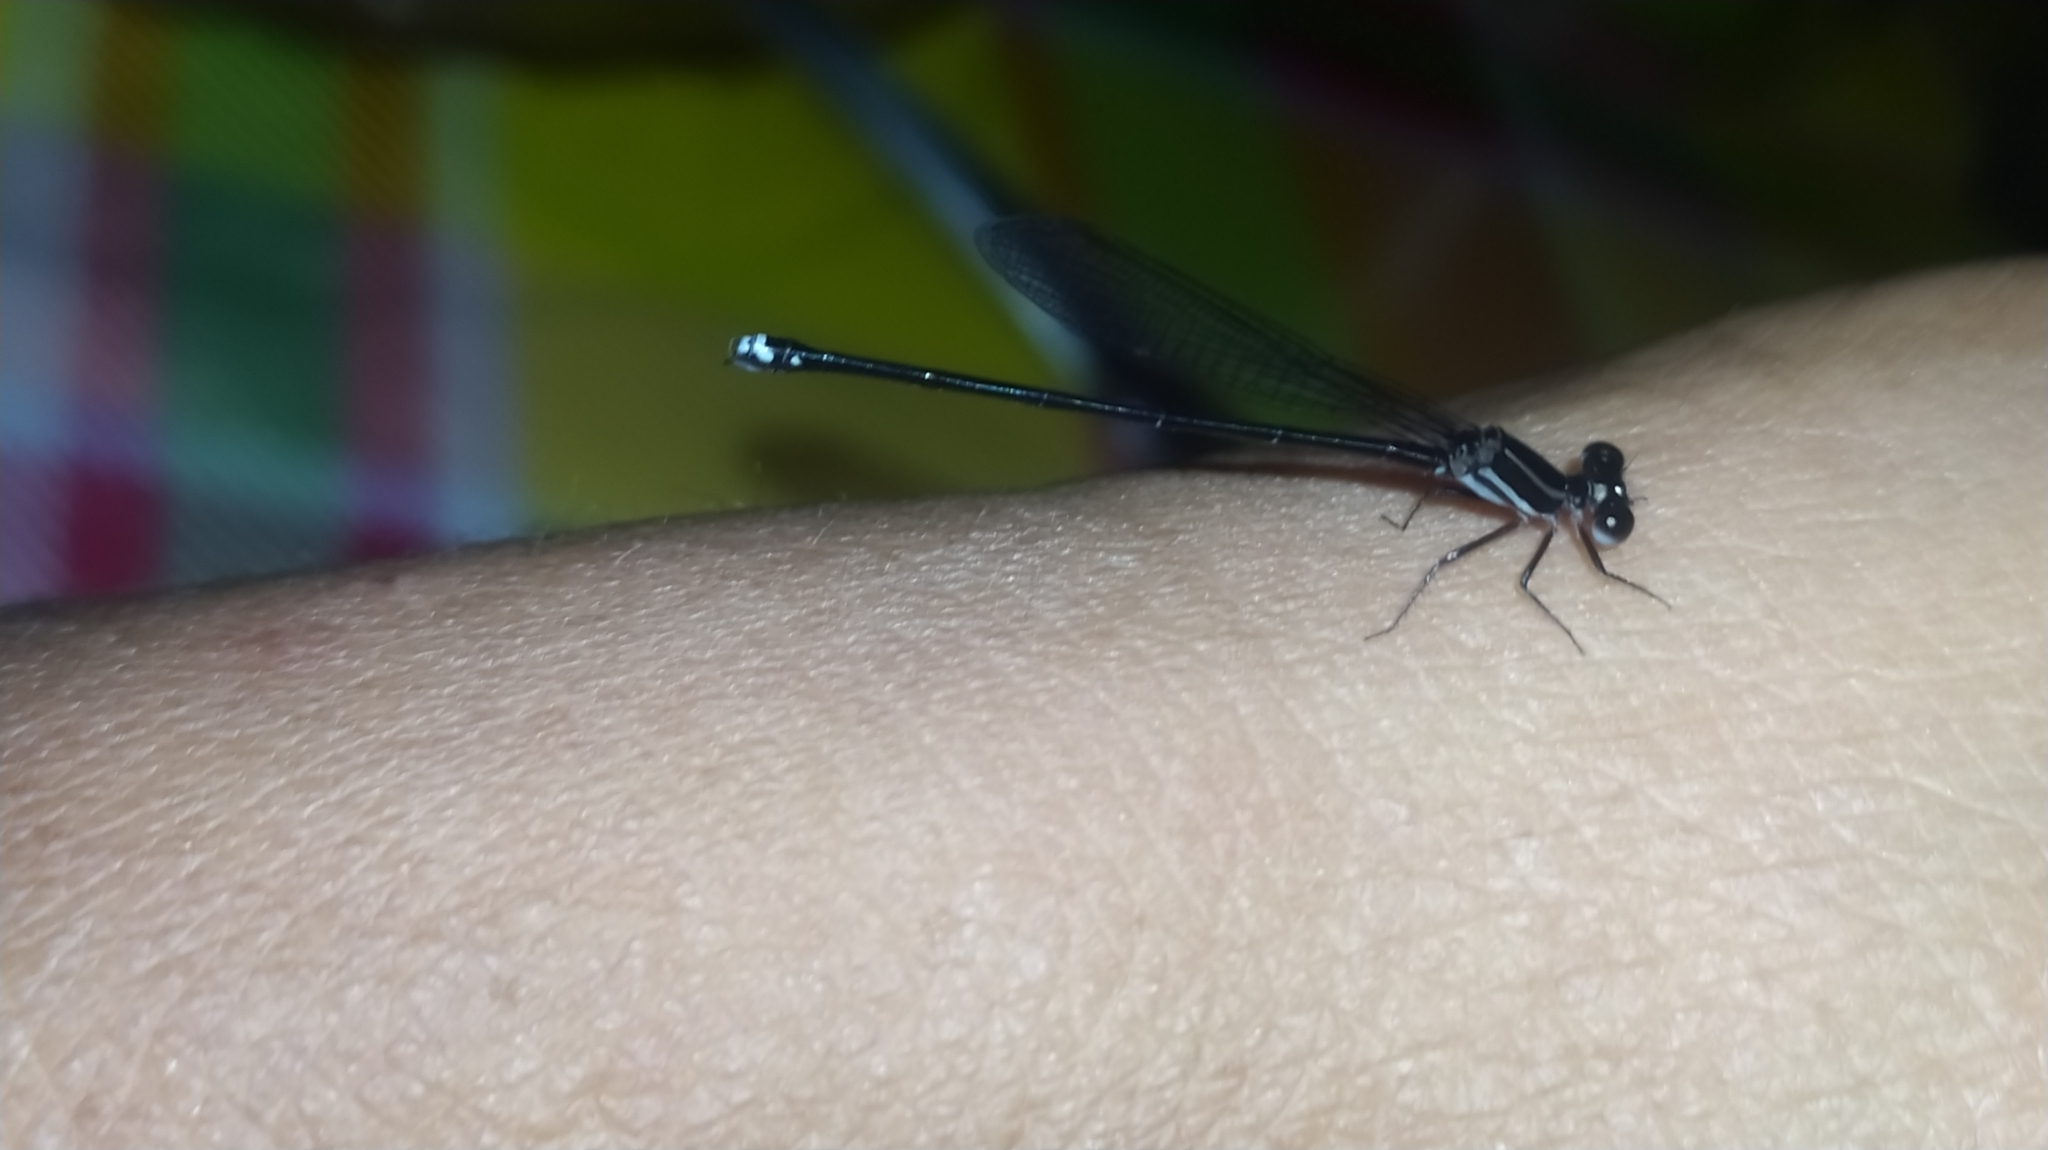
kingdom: Animalia
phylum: Arthropoda
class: Insecta
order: Odonata
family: Coenagrionidae
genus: Argia
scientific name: Argia
